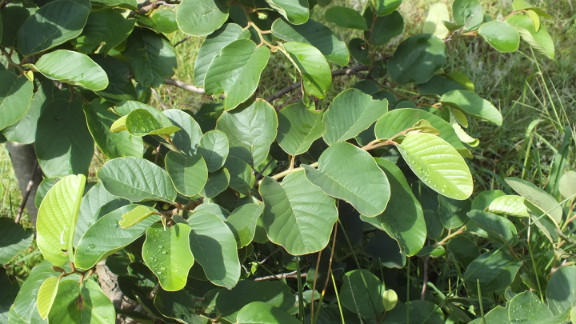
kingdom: Plantae
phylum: Tracheophyta
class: Magnoliopsida
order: Magnoliales
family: Annonaceae
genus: Annona
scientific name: Annona senegalensis
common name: Wild custard-apple
